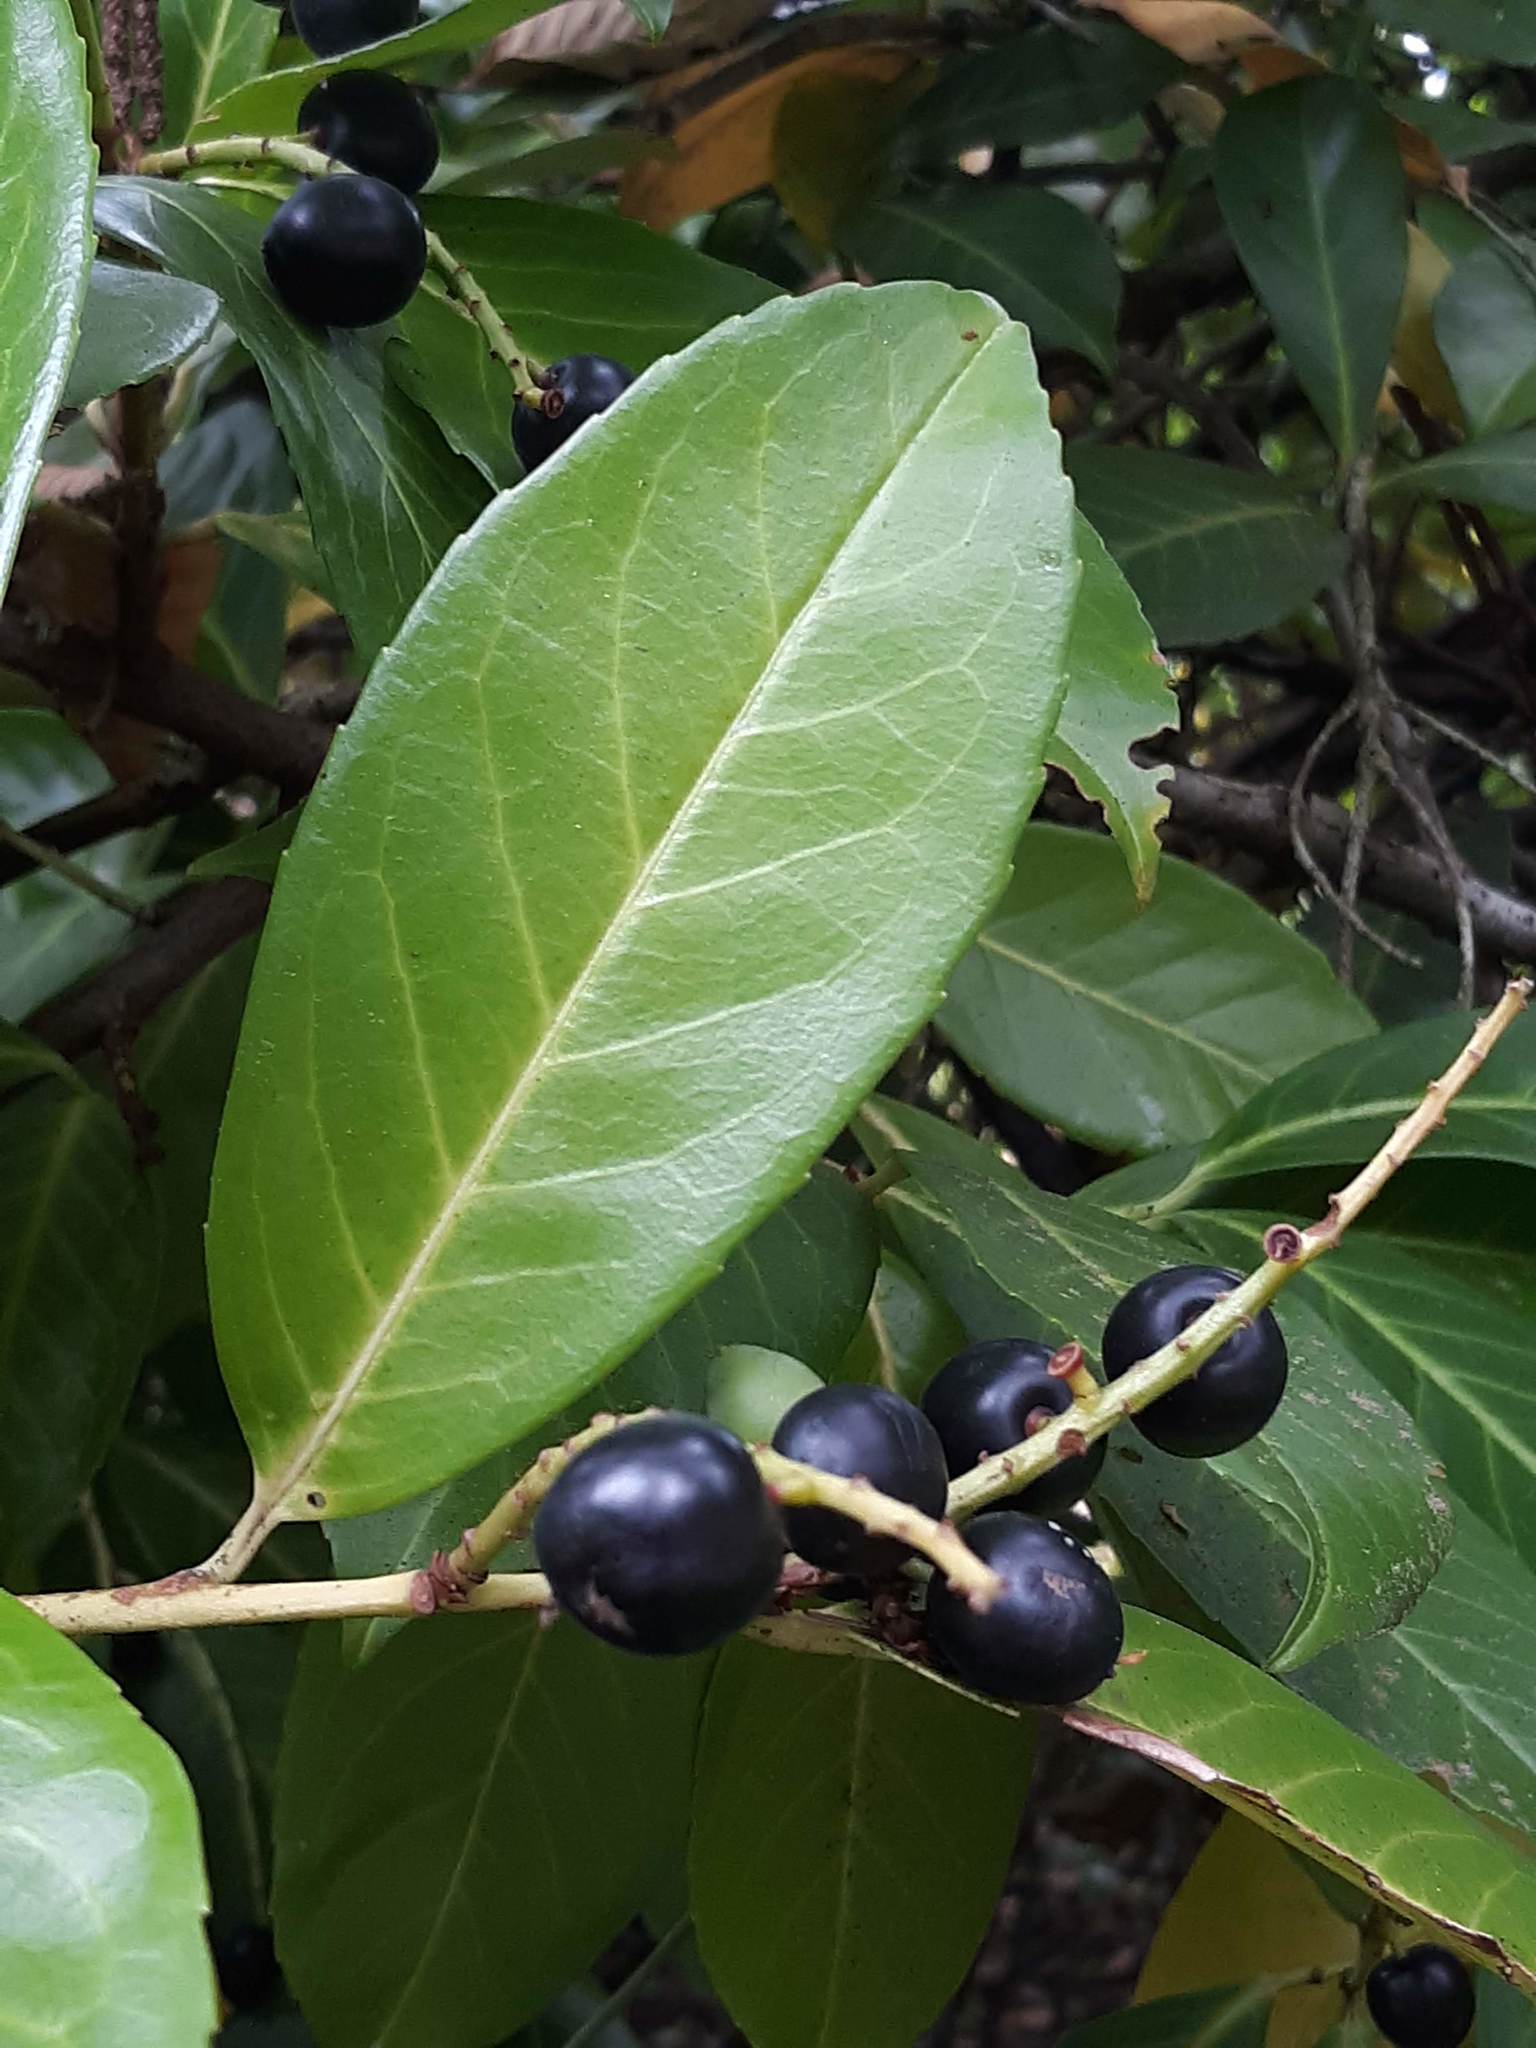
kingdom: Plantae
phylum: Tracheophyta
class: Magnoliopsida
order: Rosales
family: Rosaceae
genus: Prunus
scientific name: Prunus laurocerasus
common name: Cherry laurel
